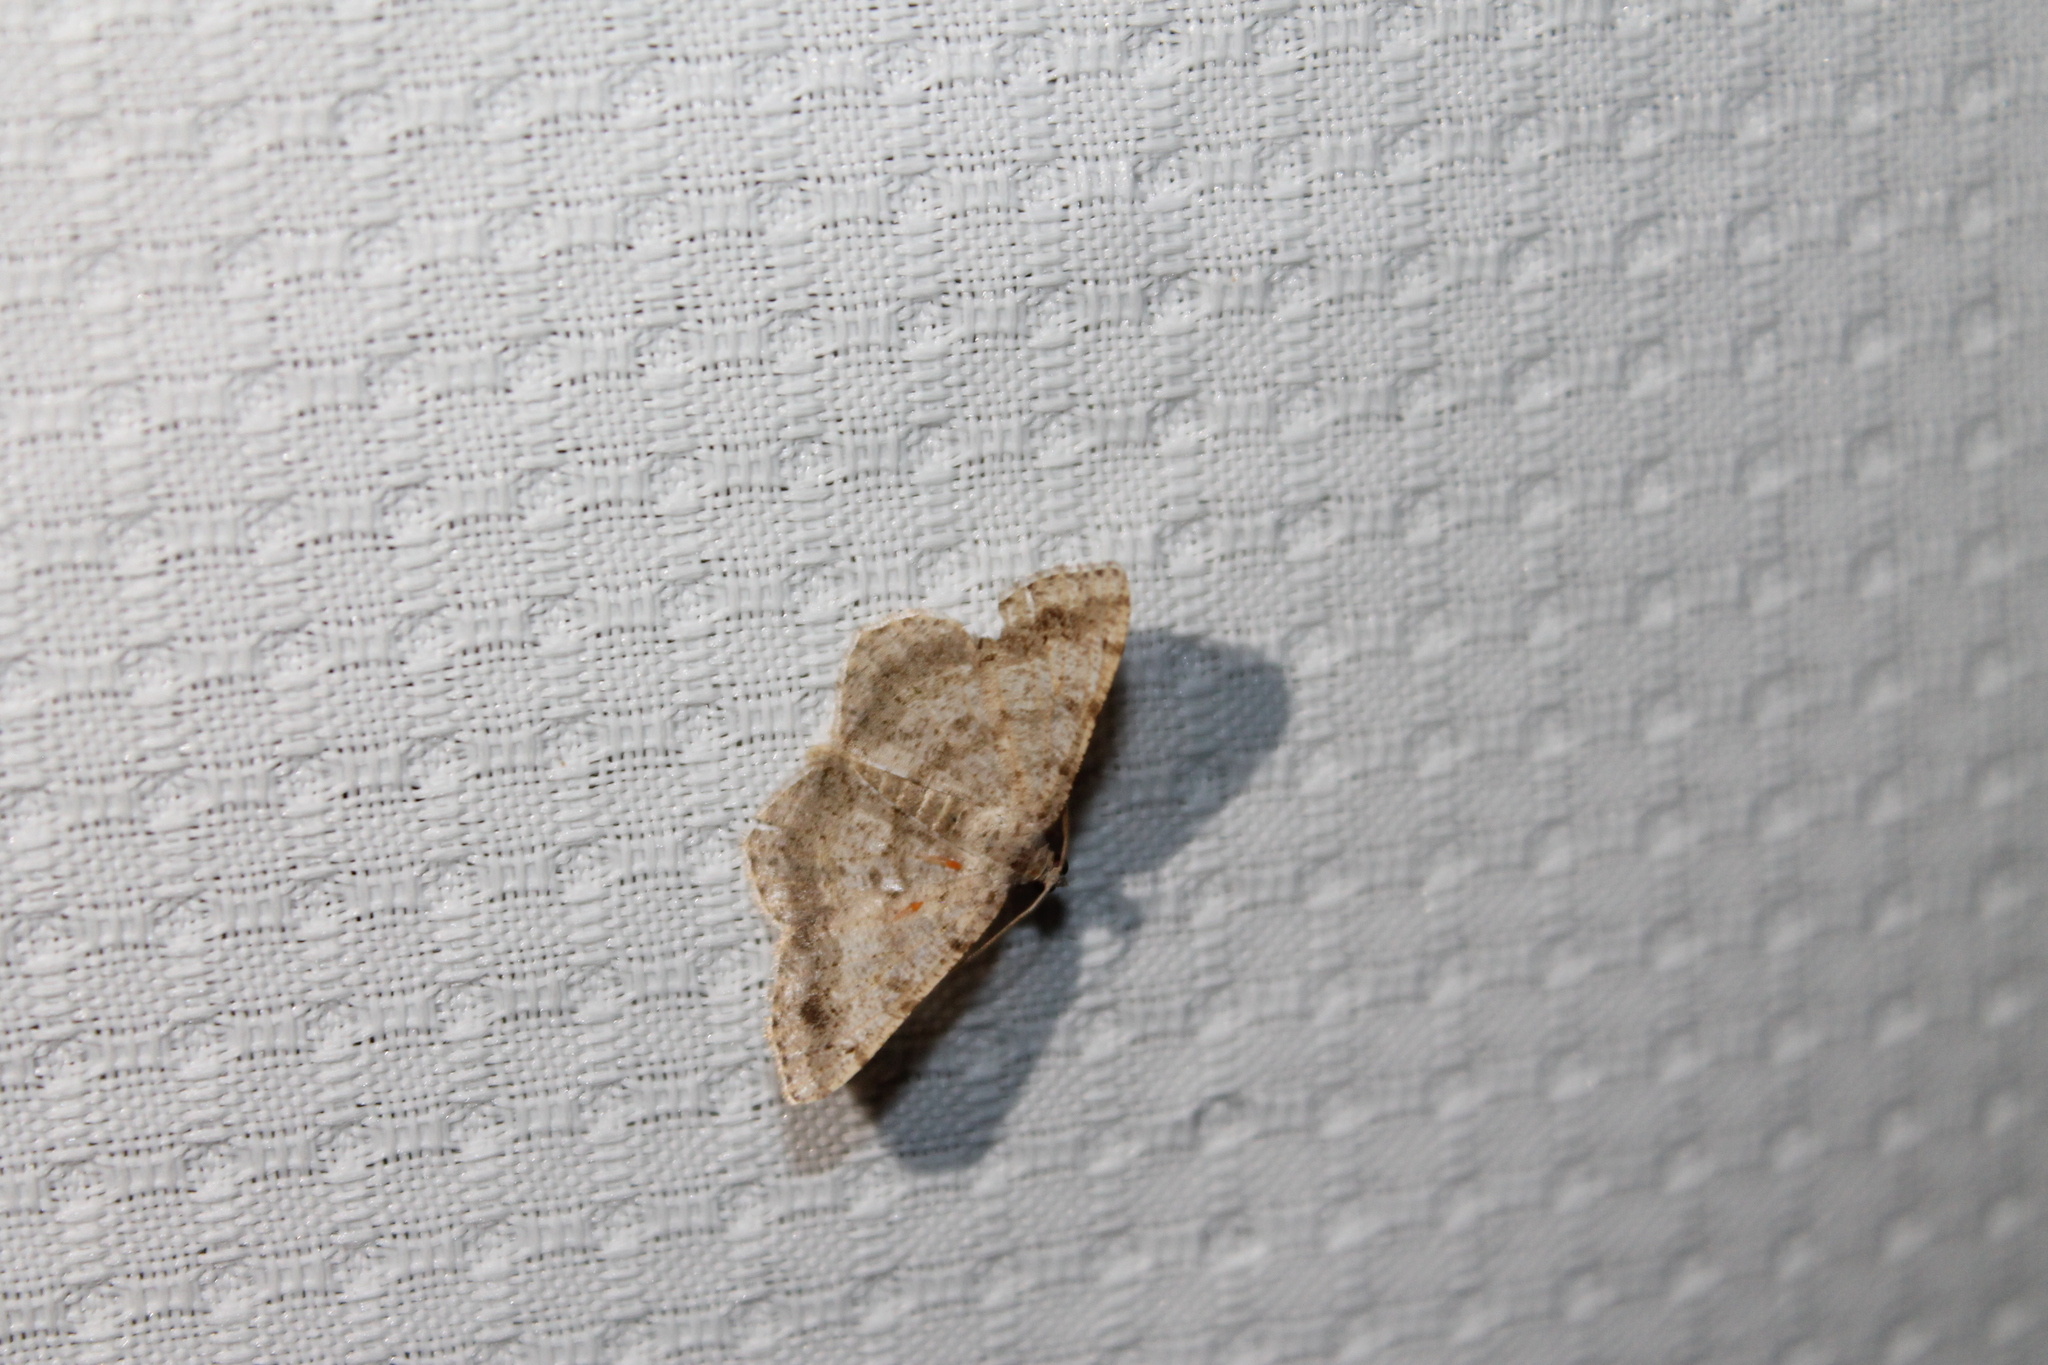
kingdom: Animalia
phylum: Arthropoda
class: Insecta
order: Lepidoptera
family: Geometridae
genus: Digrammia
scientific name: Digrammia ocellinata
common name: Faint-spotted angle
